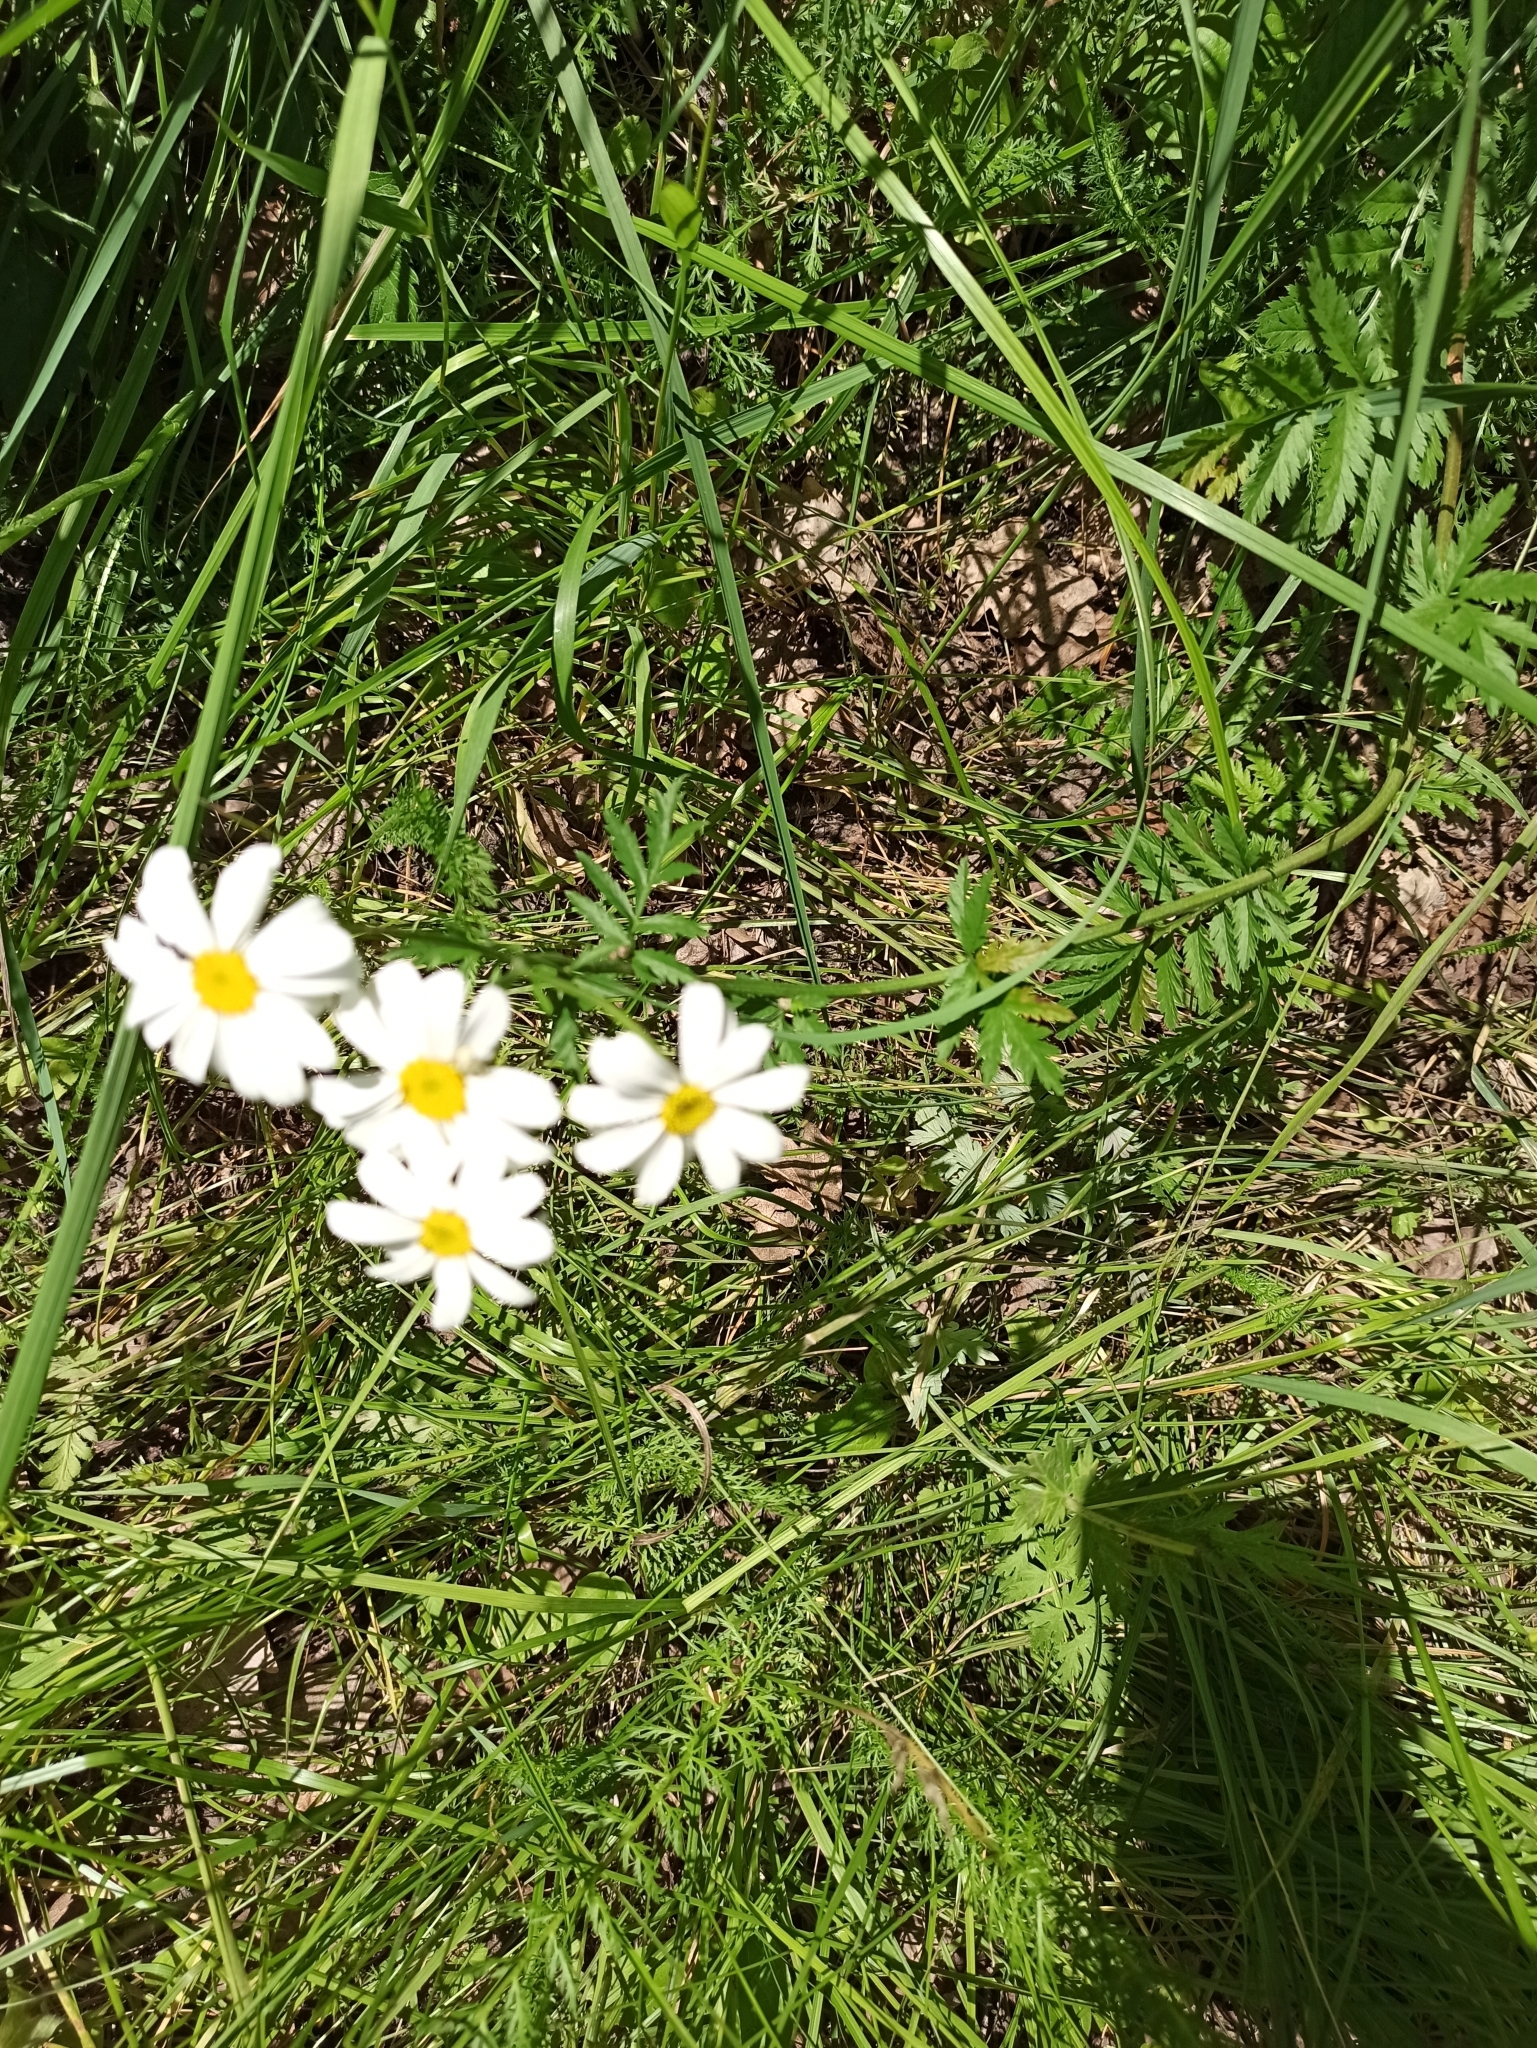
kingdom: Plantae
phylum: Tracheophyta
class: Magnoliopsida
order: Asterales
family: Asteraceae
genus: Tanacetum
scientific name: Tanacetum corymbosum
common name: Scentless feverfew
